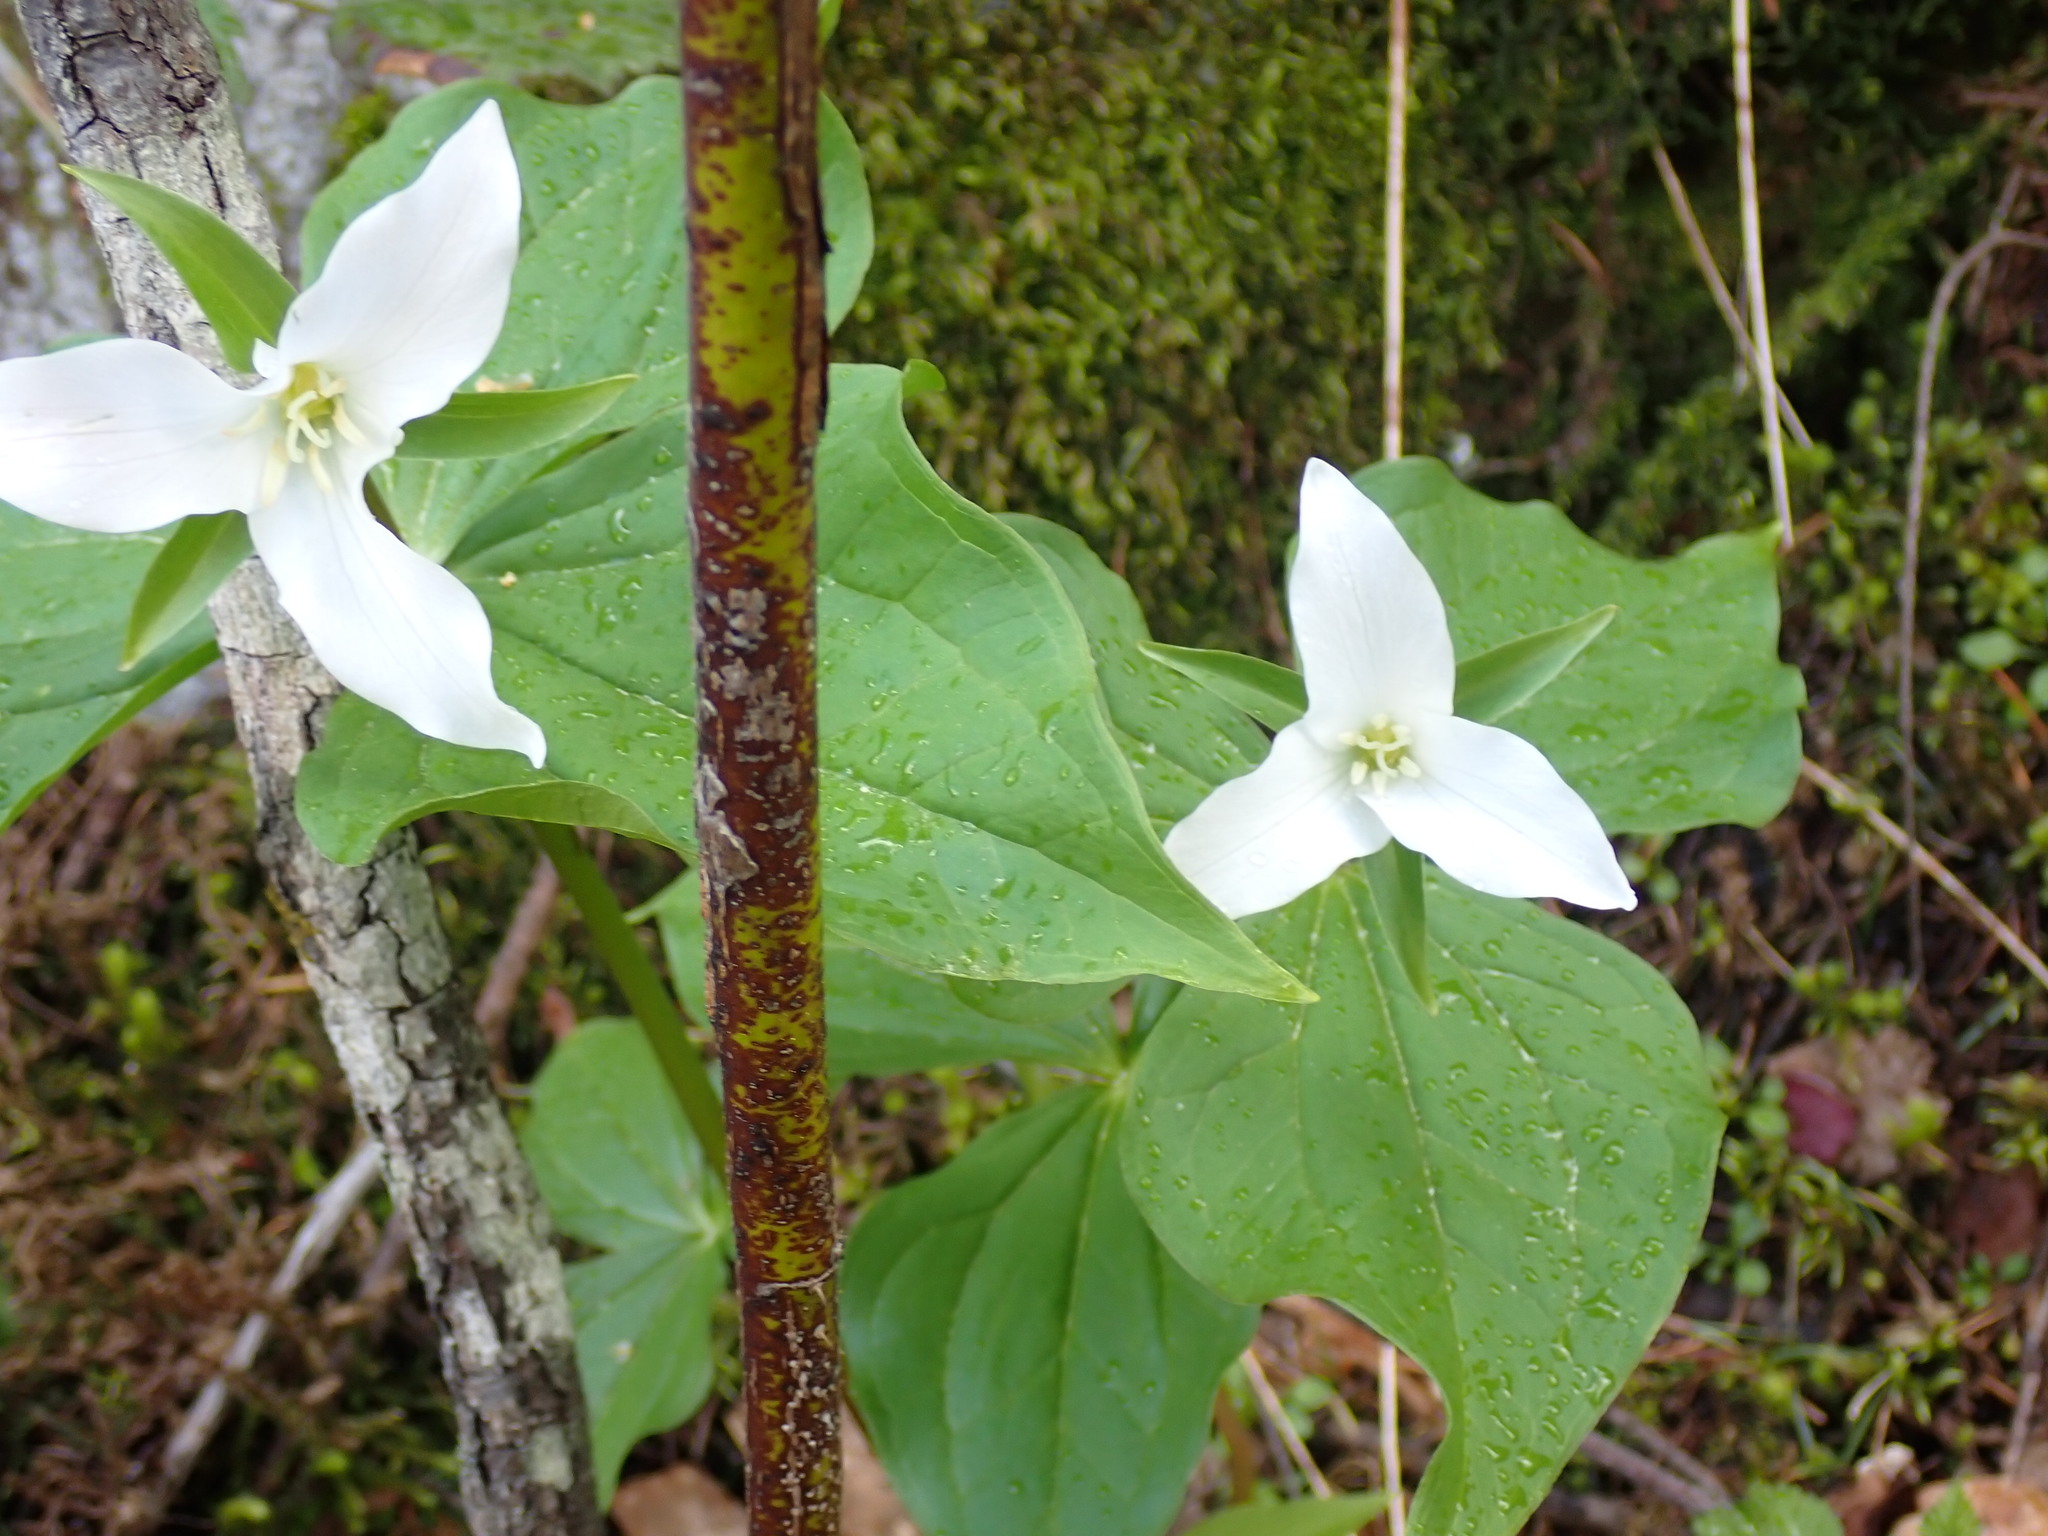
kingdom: Plantae
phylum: Tracheophyta
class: Liliopsida
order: Liliales
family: Melanthiaceae
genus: Trillium
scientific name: Trillium ovatum
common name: Pacific trillium
